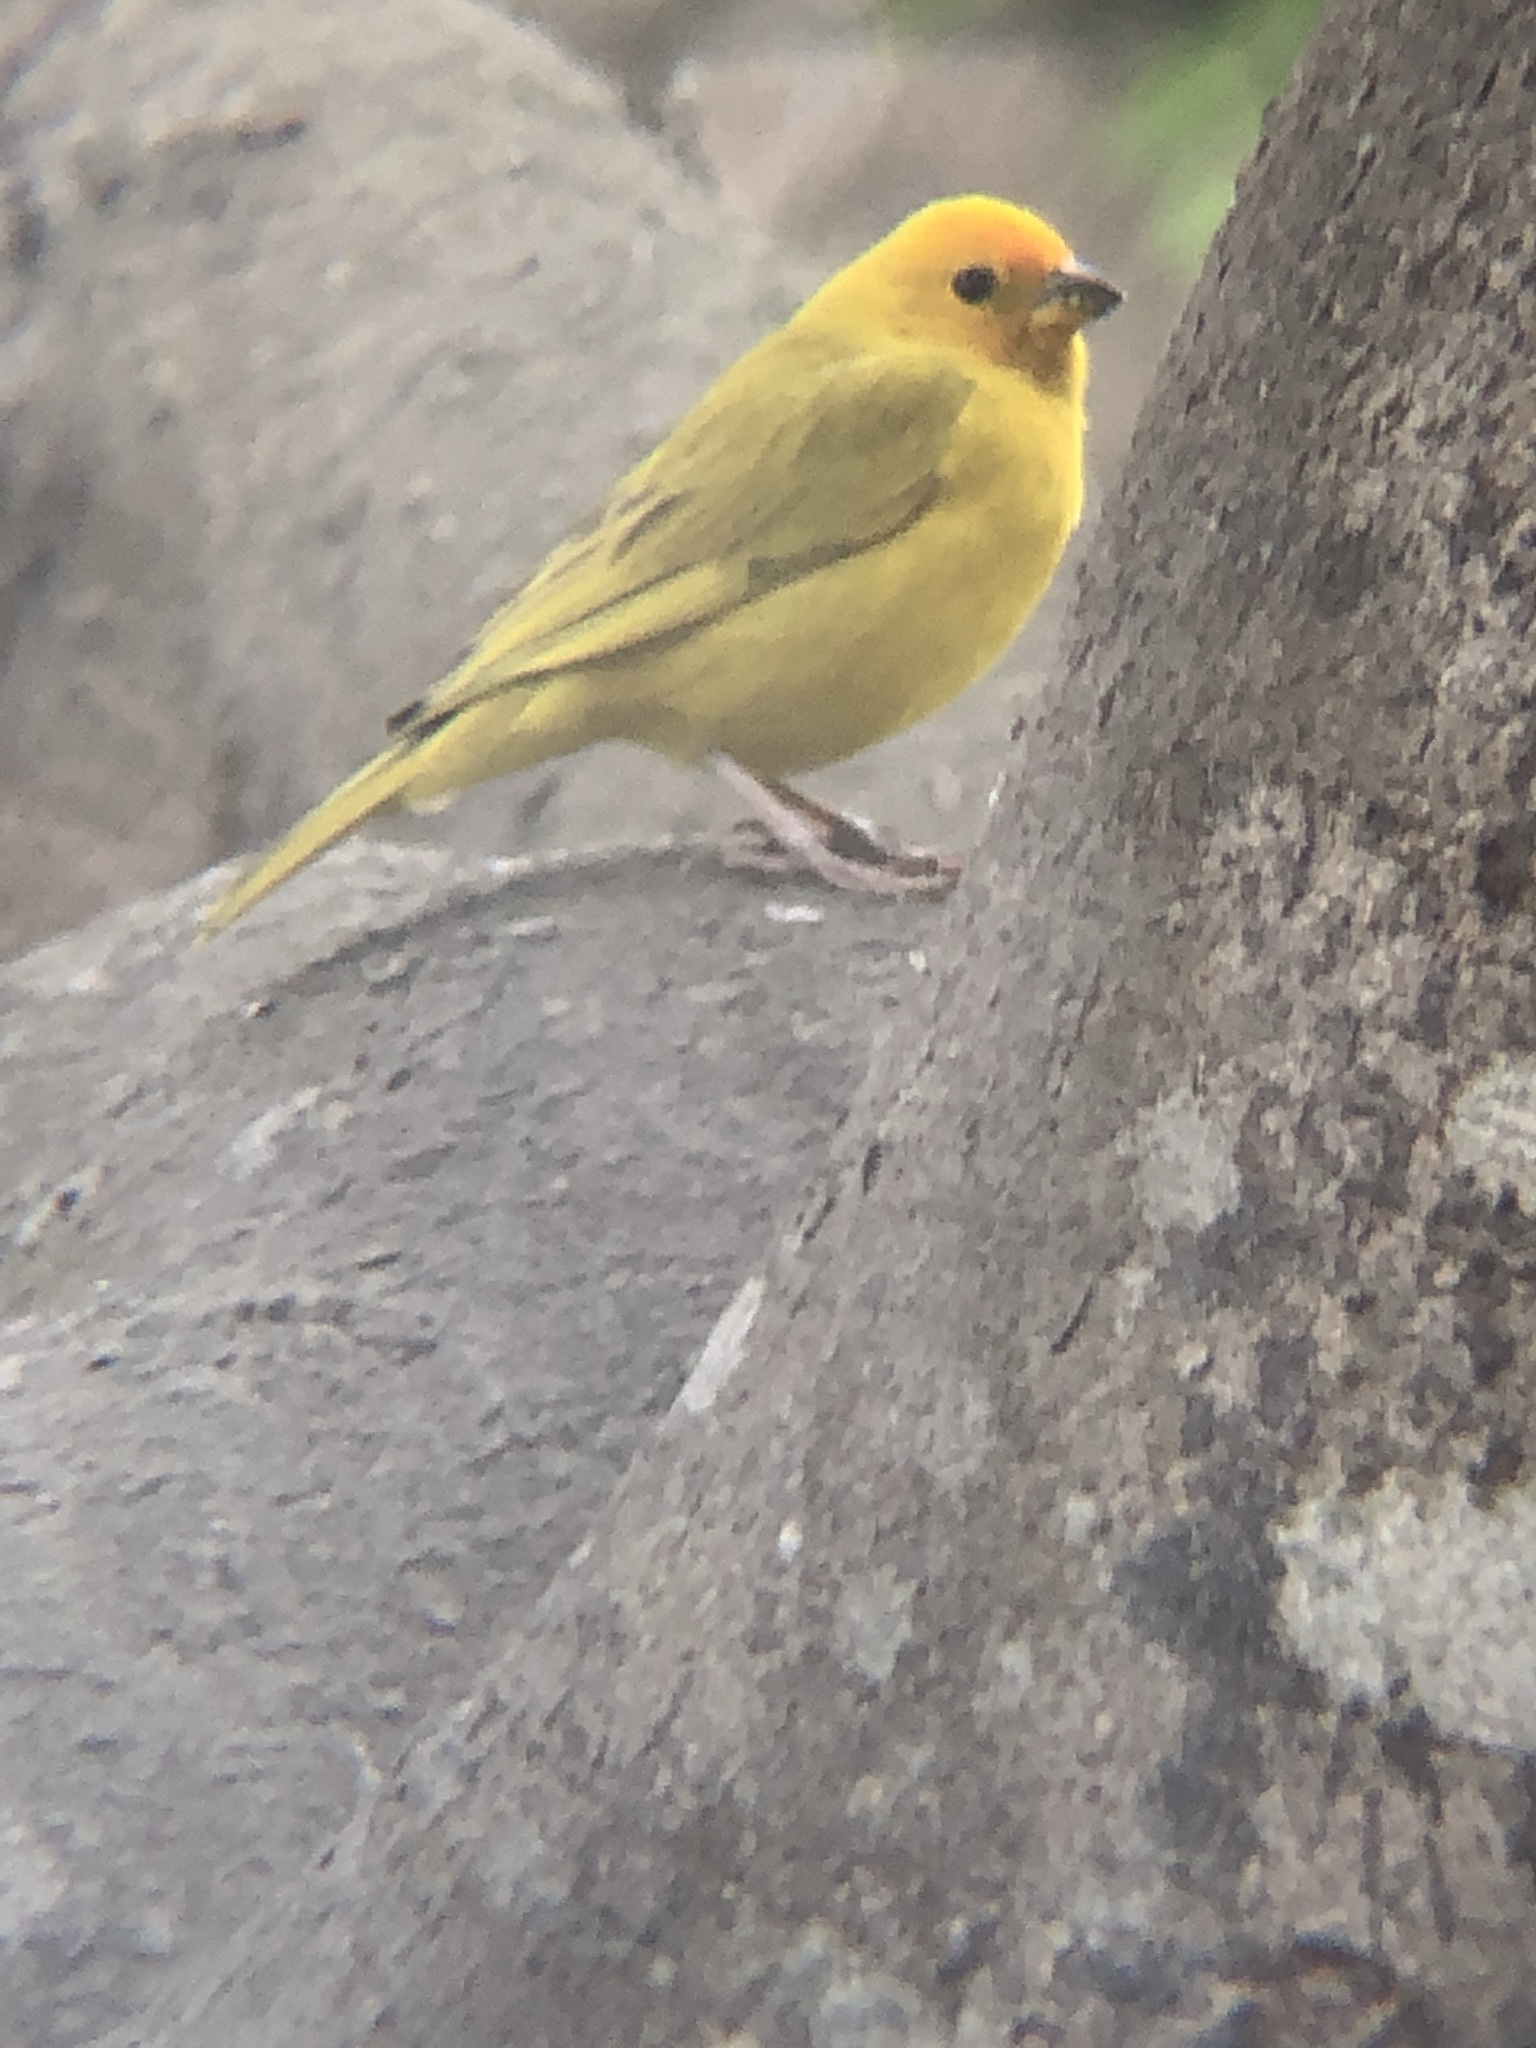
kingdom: Animalia
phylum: Chordata
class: Aves
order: Passeriformes
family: Thraupidae
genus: Sicalis
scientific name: Sicalis flaveola
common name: Saffron finch
